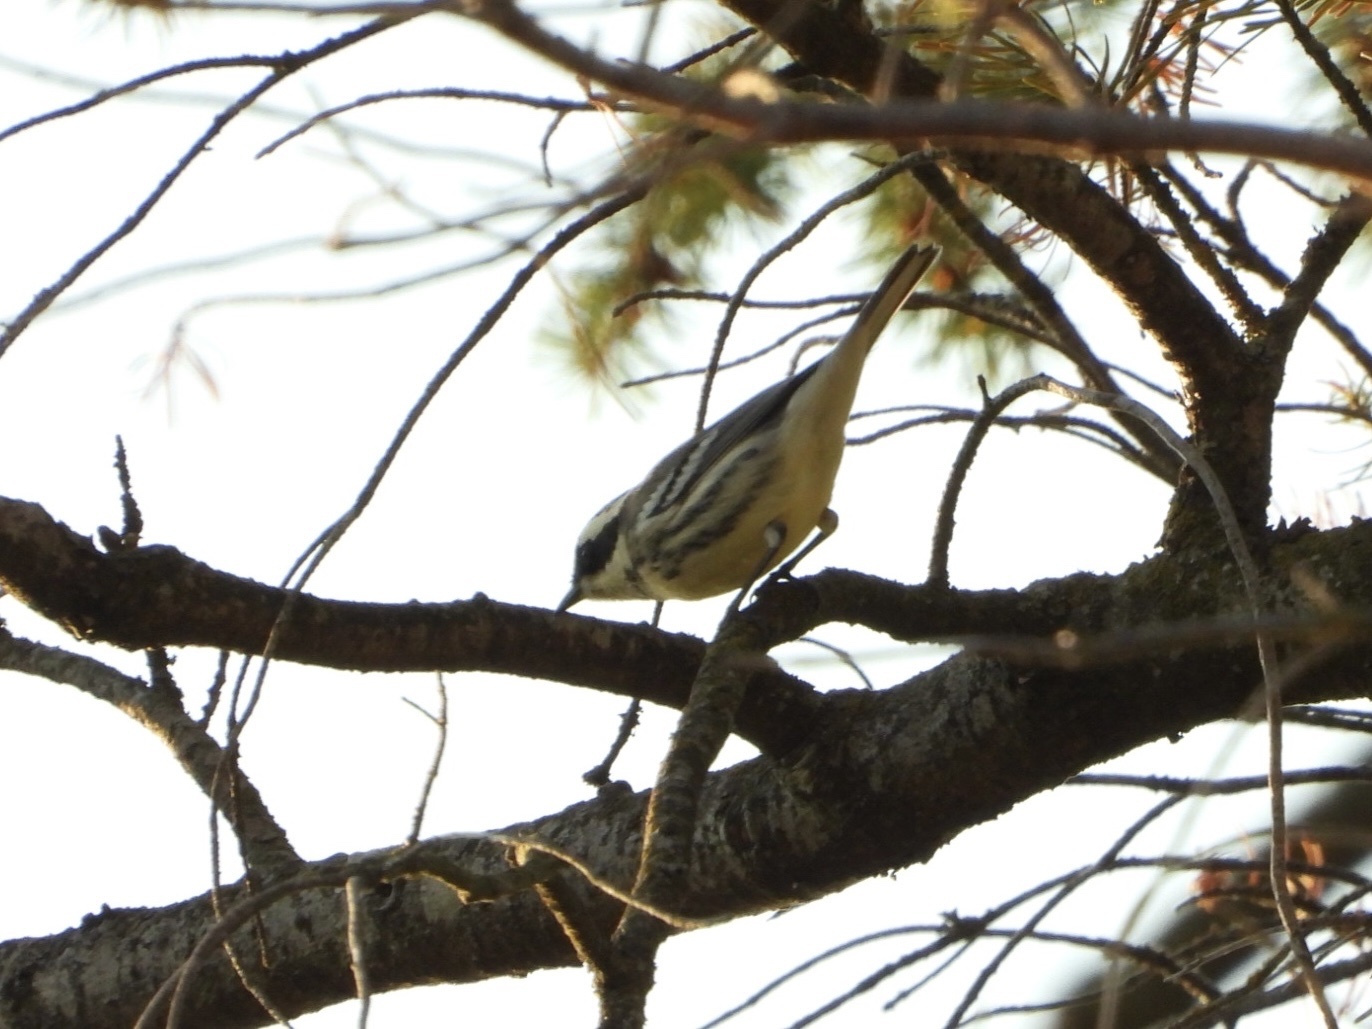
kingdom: Animalia
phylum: Chordata
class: Aves
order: Passeriformes
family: Parulidae
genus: Setophaga
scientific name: Setophaga nigrescens
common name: Black-throated gray warbler
